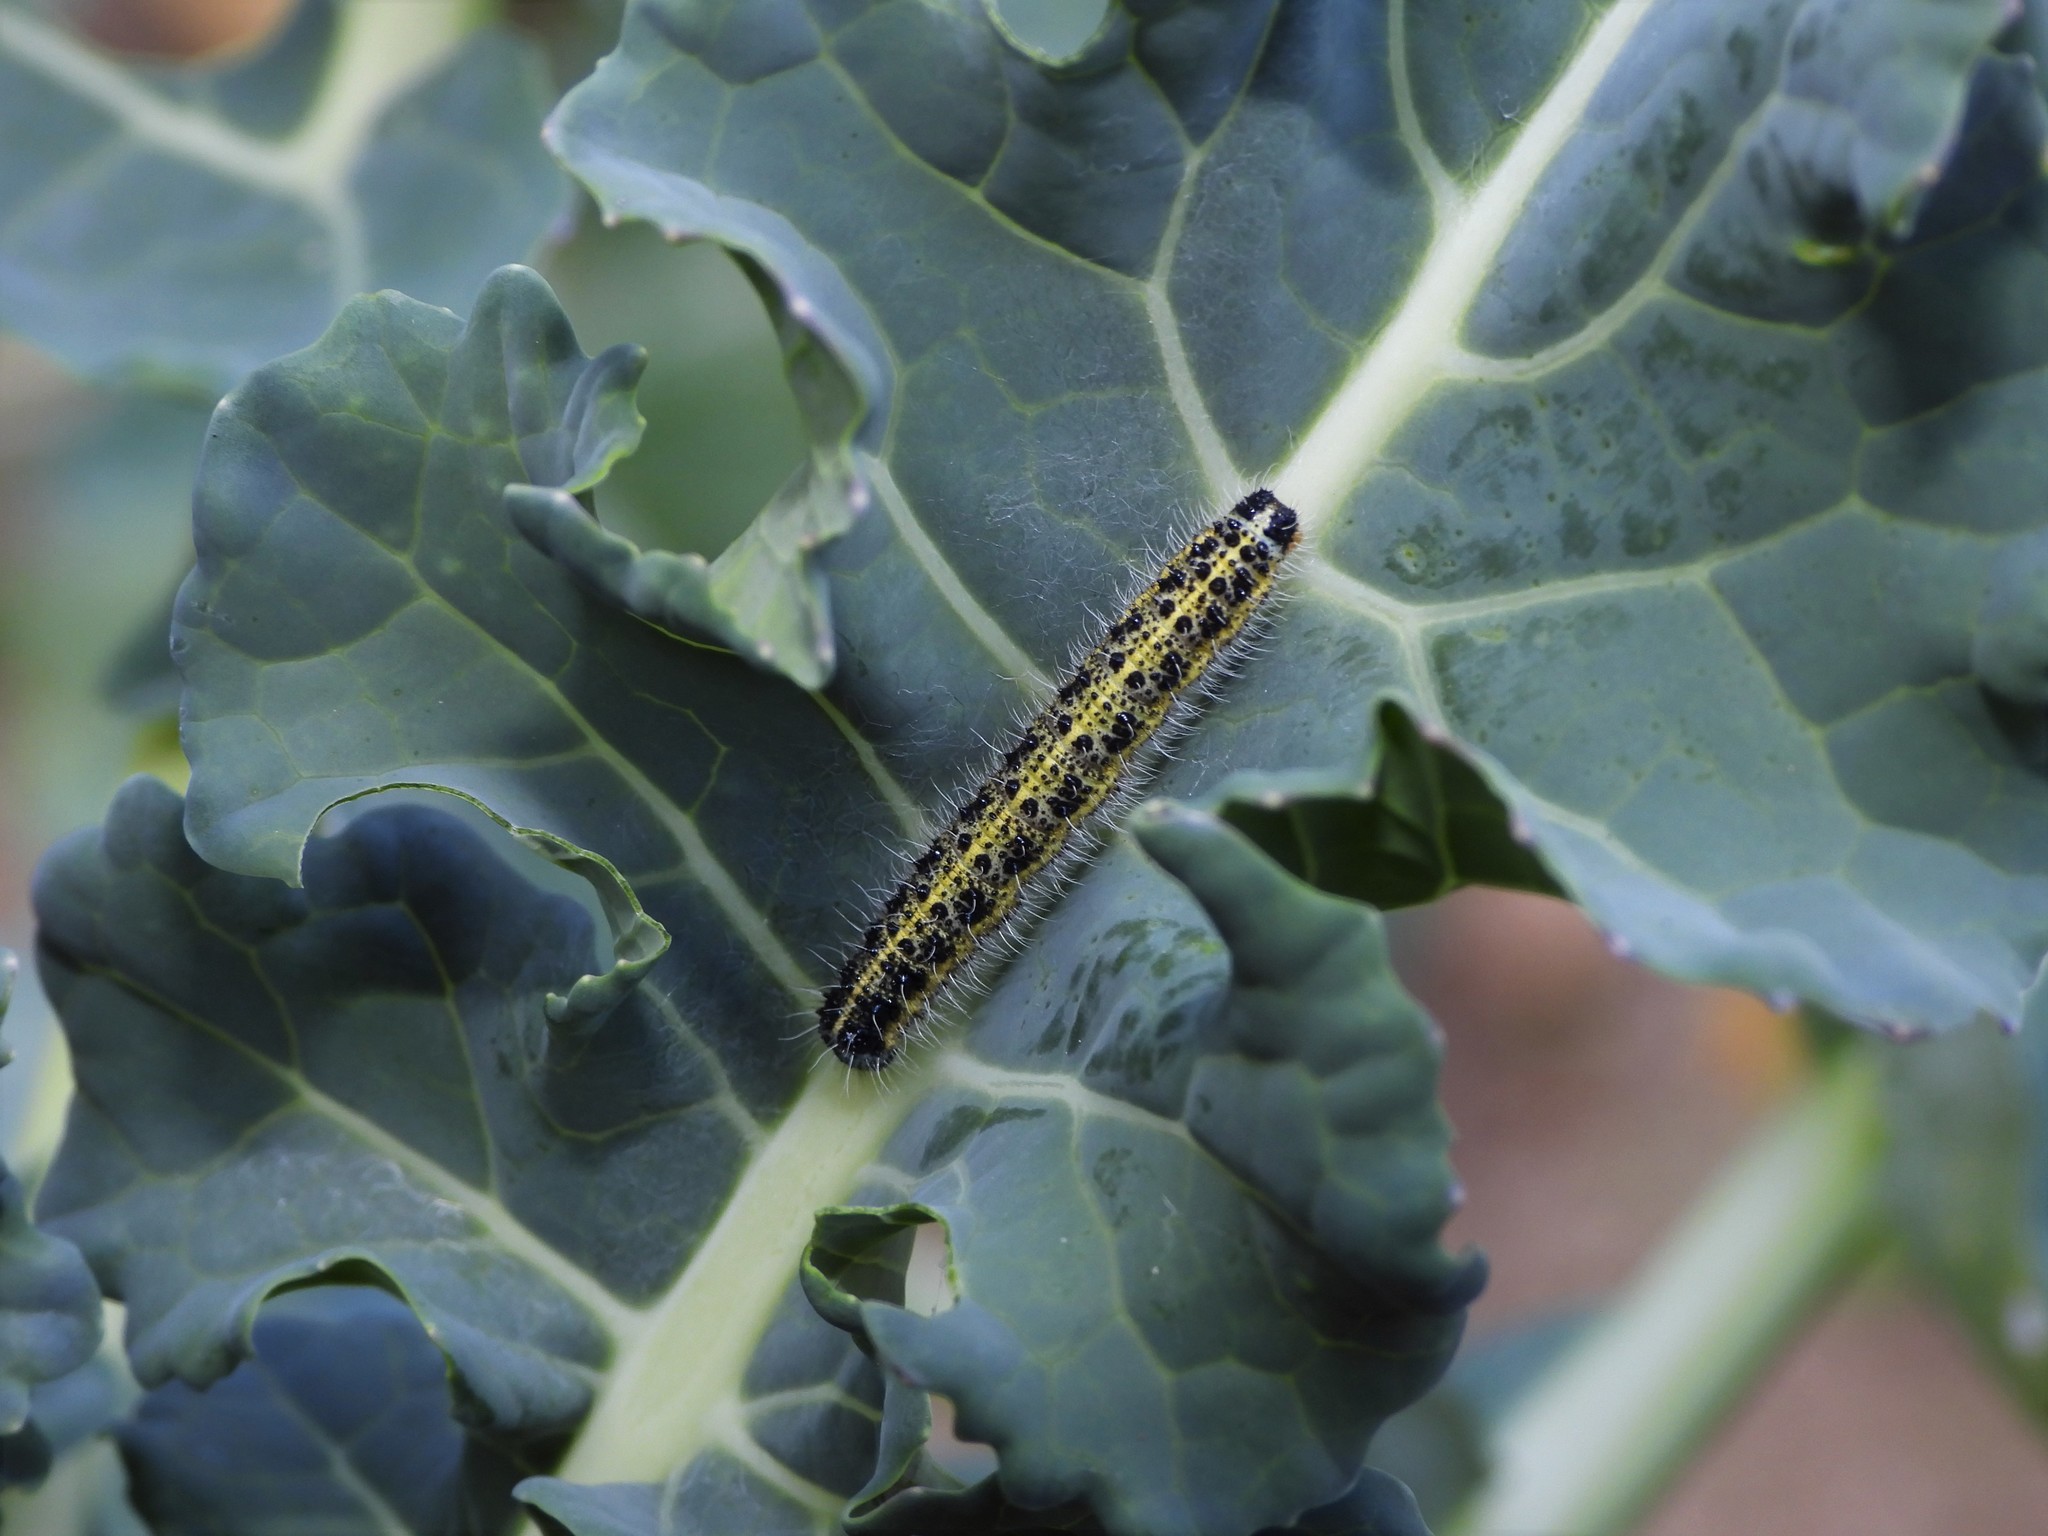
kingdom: Animalia
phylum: Arthropoda
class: Insecta
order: Lepidoptera
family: Pieridae
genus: Pieris
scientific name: Pieris brassicae
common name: Large white
